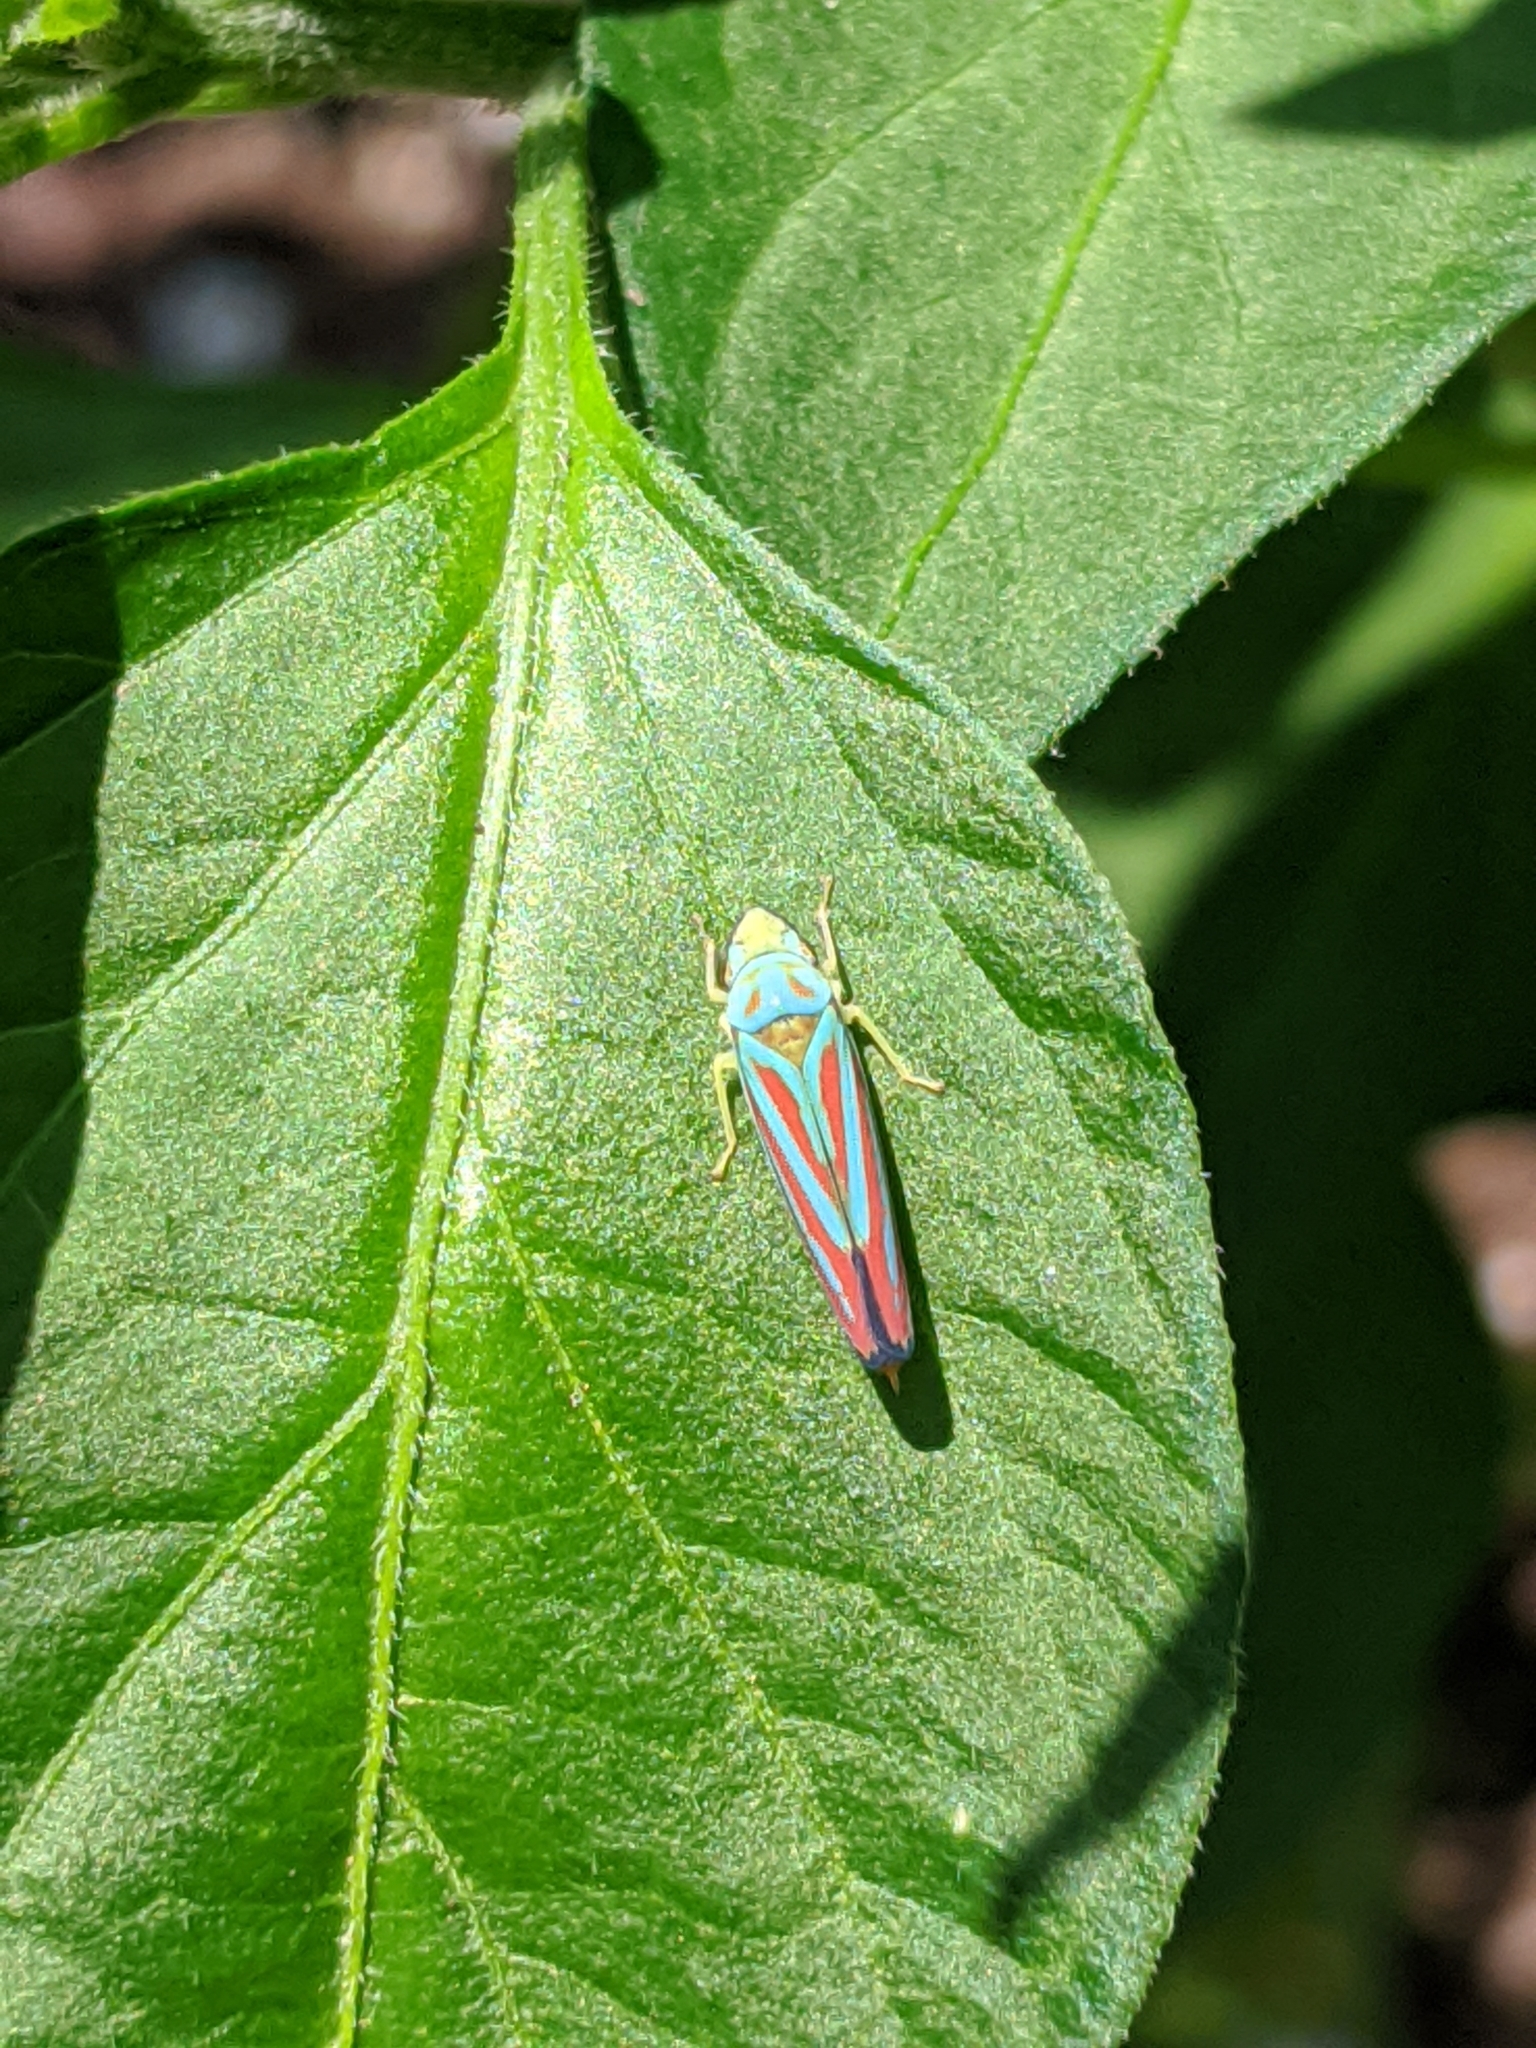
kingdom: Animalia
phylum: Arthropoda
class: Insecta
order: Hemiptera
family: Cicadellidae
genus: Graphocephala
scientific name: Graphocephala coccinea
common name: Candy-striped leafhopper
